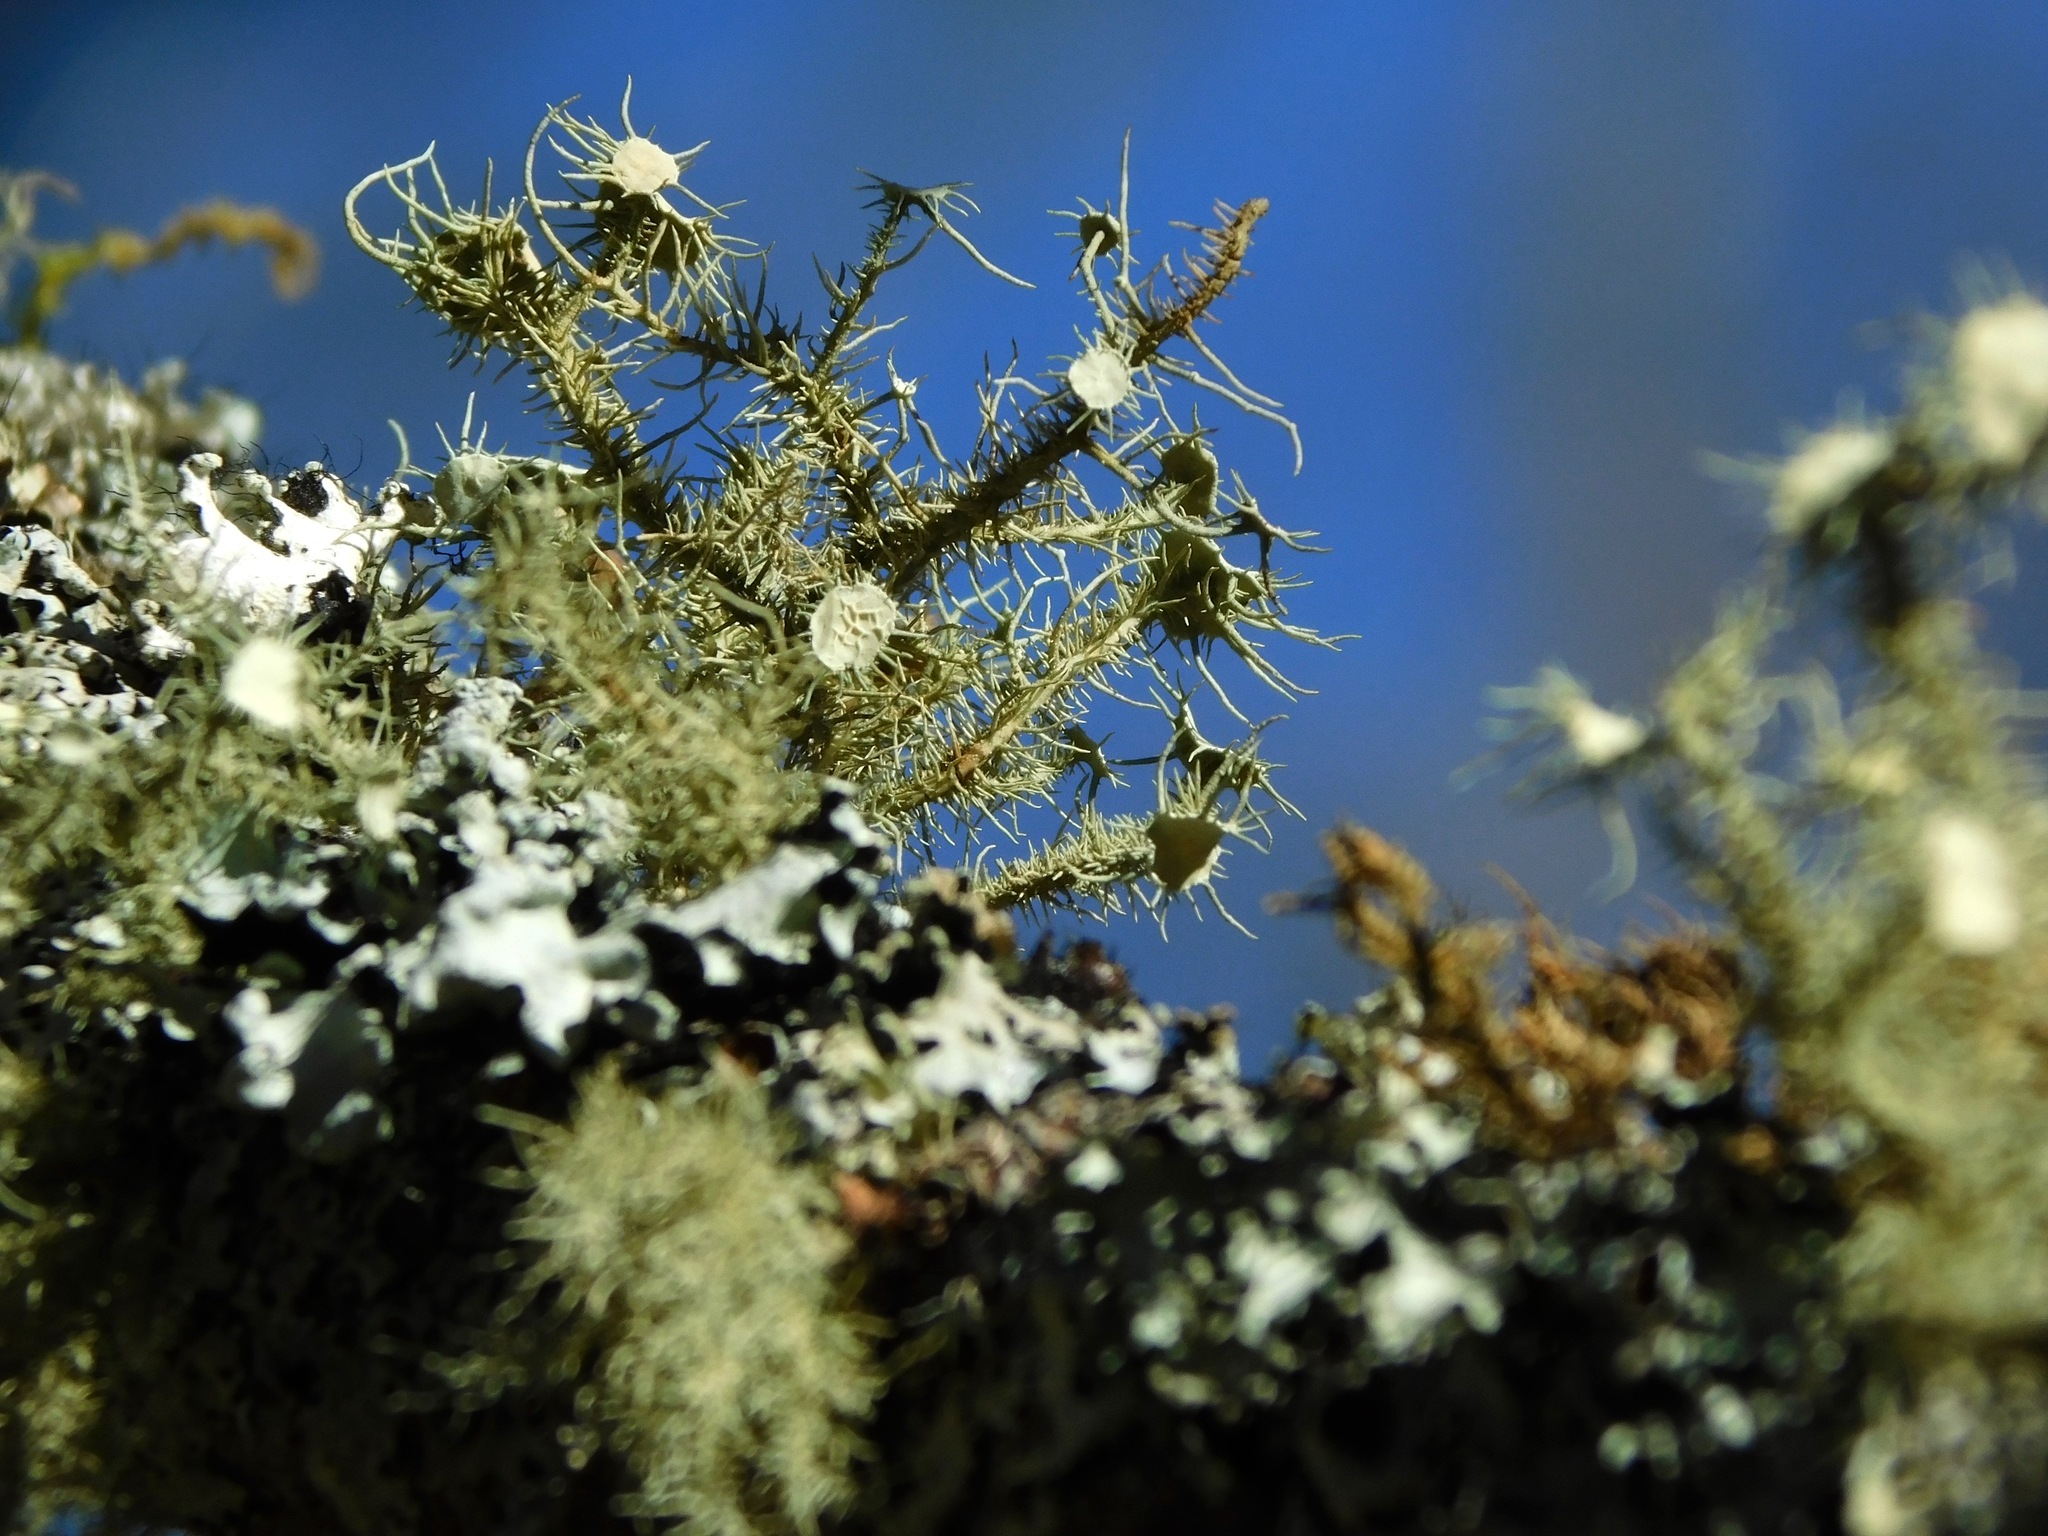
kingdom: Fungi
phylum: Ascomycota
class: Lecanoromycetes
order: Lecanorales
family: Parmeliaceae
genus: Usnea
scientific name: Usnea strigosa
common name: Bushy beard lichen
